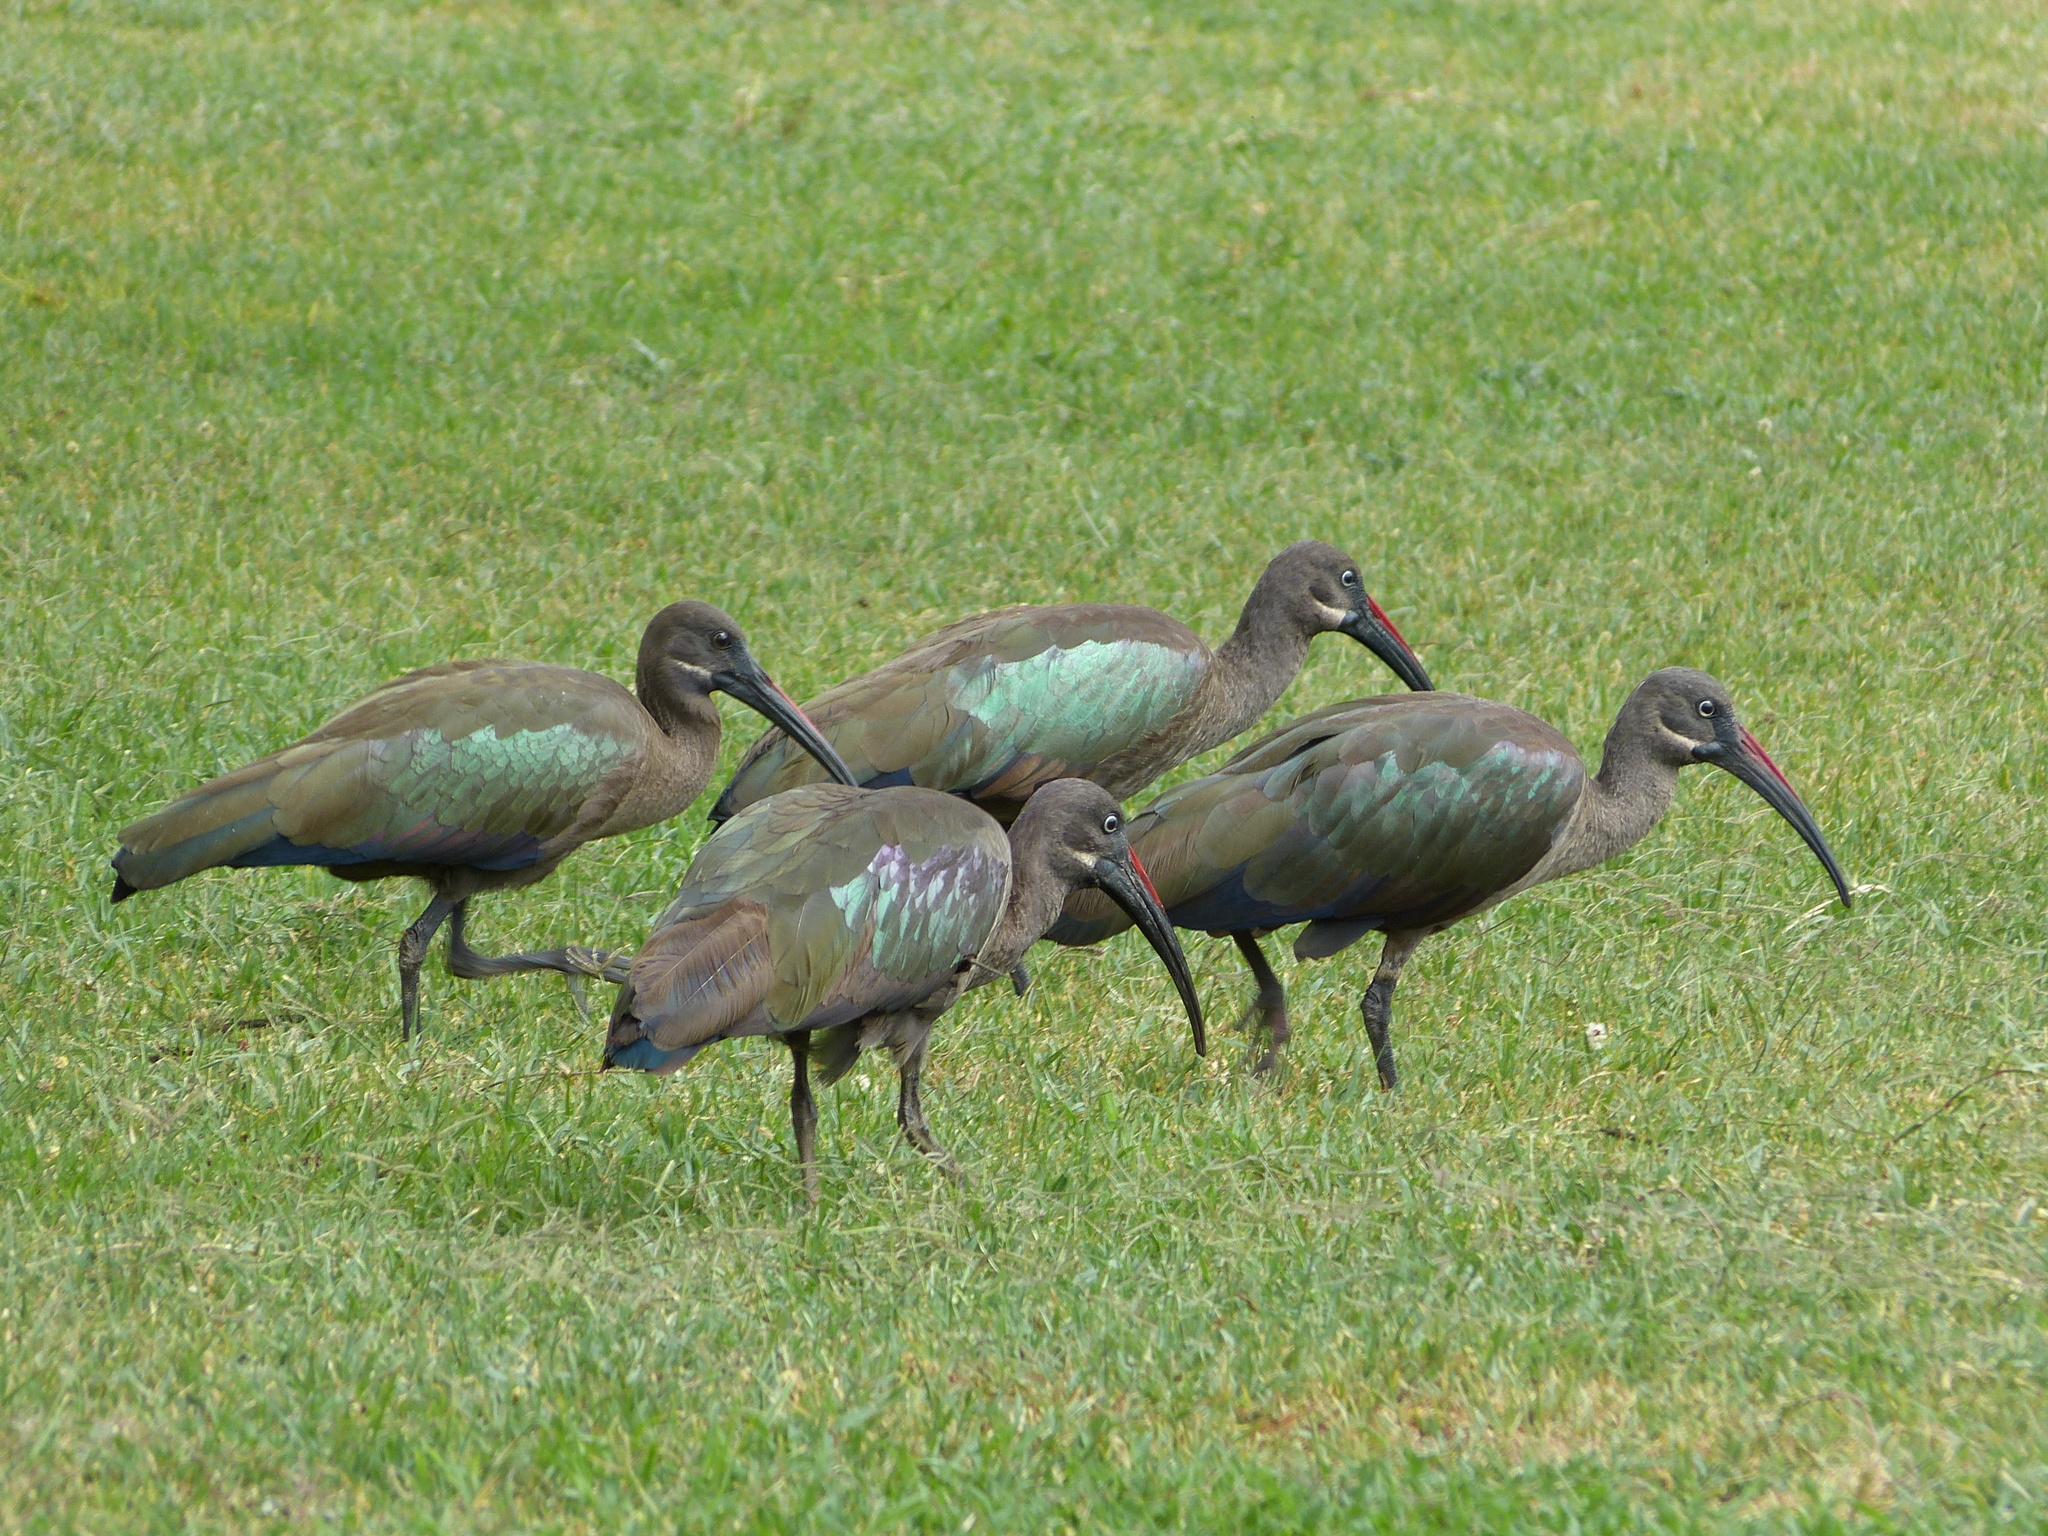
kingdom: Animalia
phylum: Chordata
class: Aves
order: Pelecaniformes
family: Threskiornithidae
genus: Bostrychia
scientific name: Bostrychia hagedash
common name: Hadada ibis
